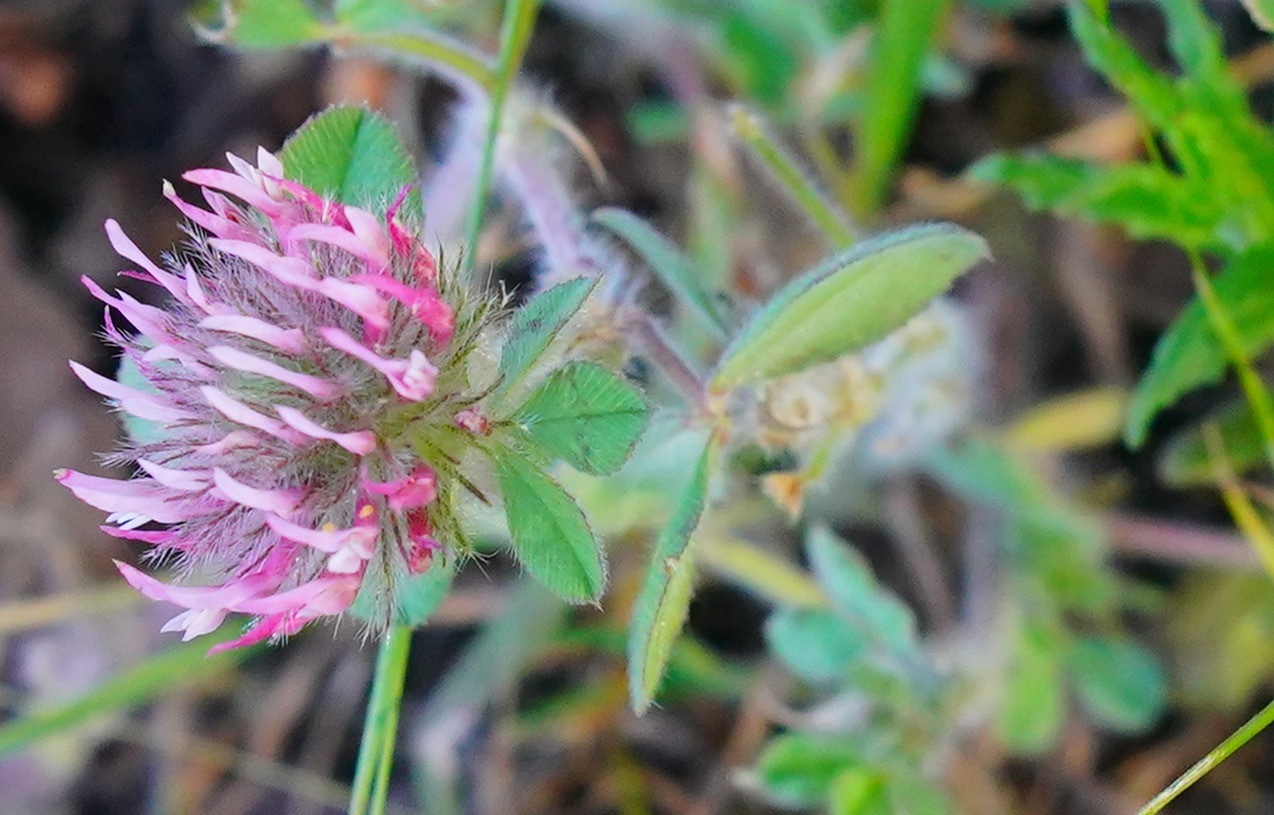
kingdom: Plantae
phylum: Tracheophyta
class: Magnoliopsida
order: Fabales
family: Fabaceae
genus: Trifolium
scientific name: Trifolium hirtum
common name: Rose clover
